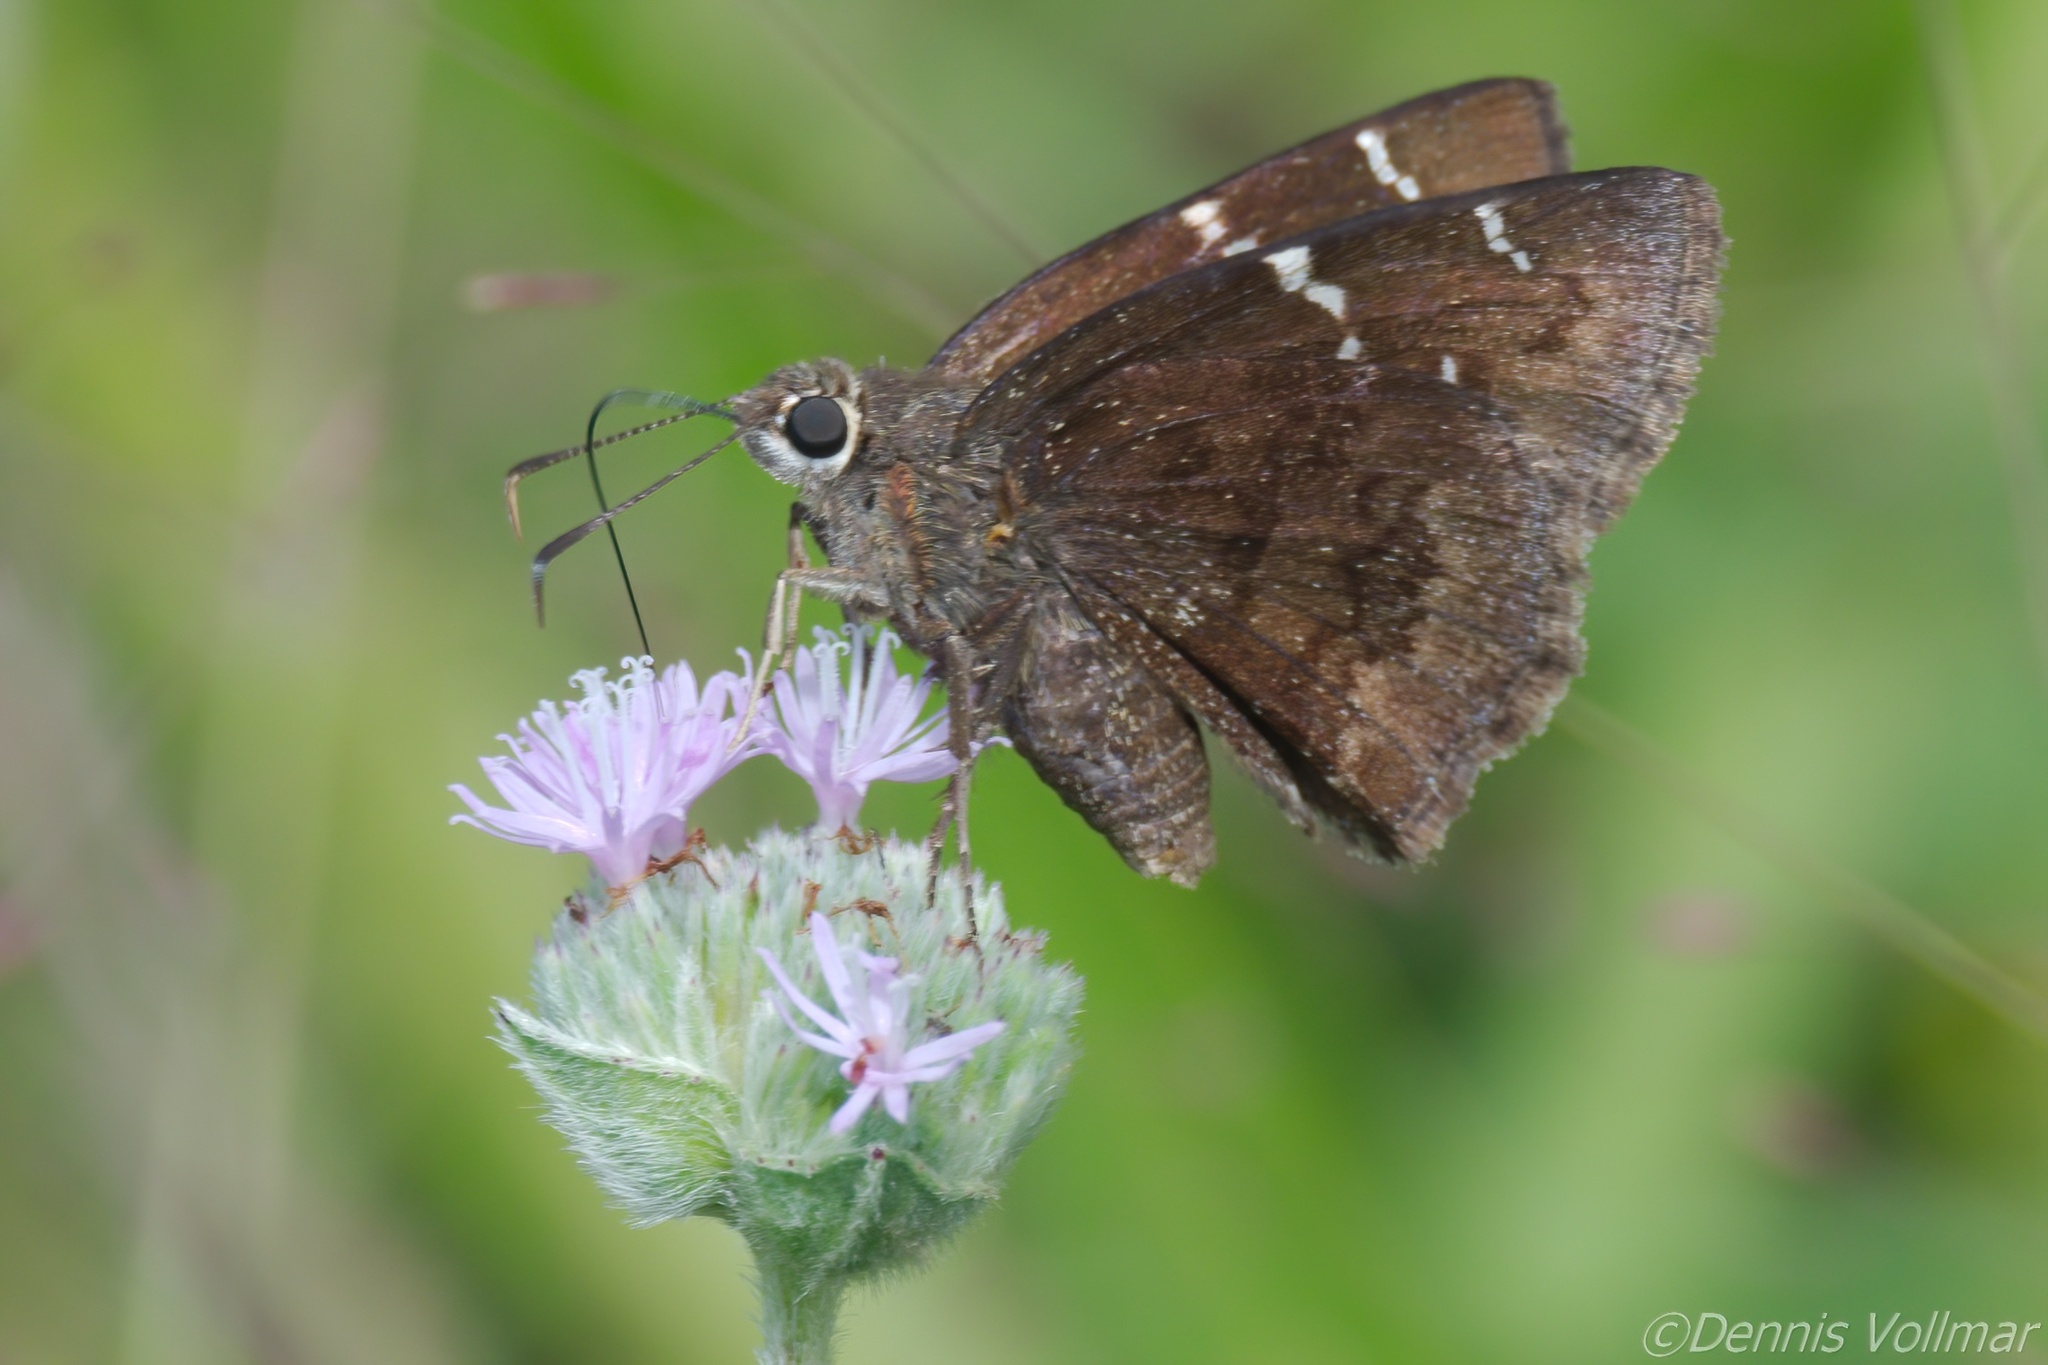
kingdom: Animalia
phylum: Arthropoda
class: Insecta
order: Lepidoptera
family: Hesperiidae
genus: Thorybes
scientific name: Thorybes mexicana
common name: Mexican cloudywing
